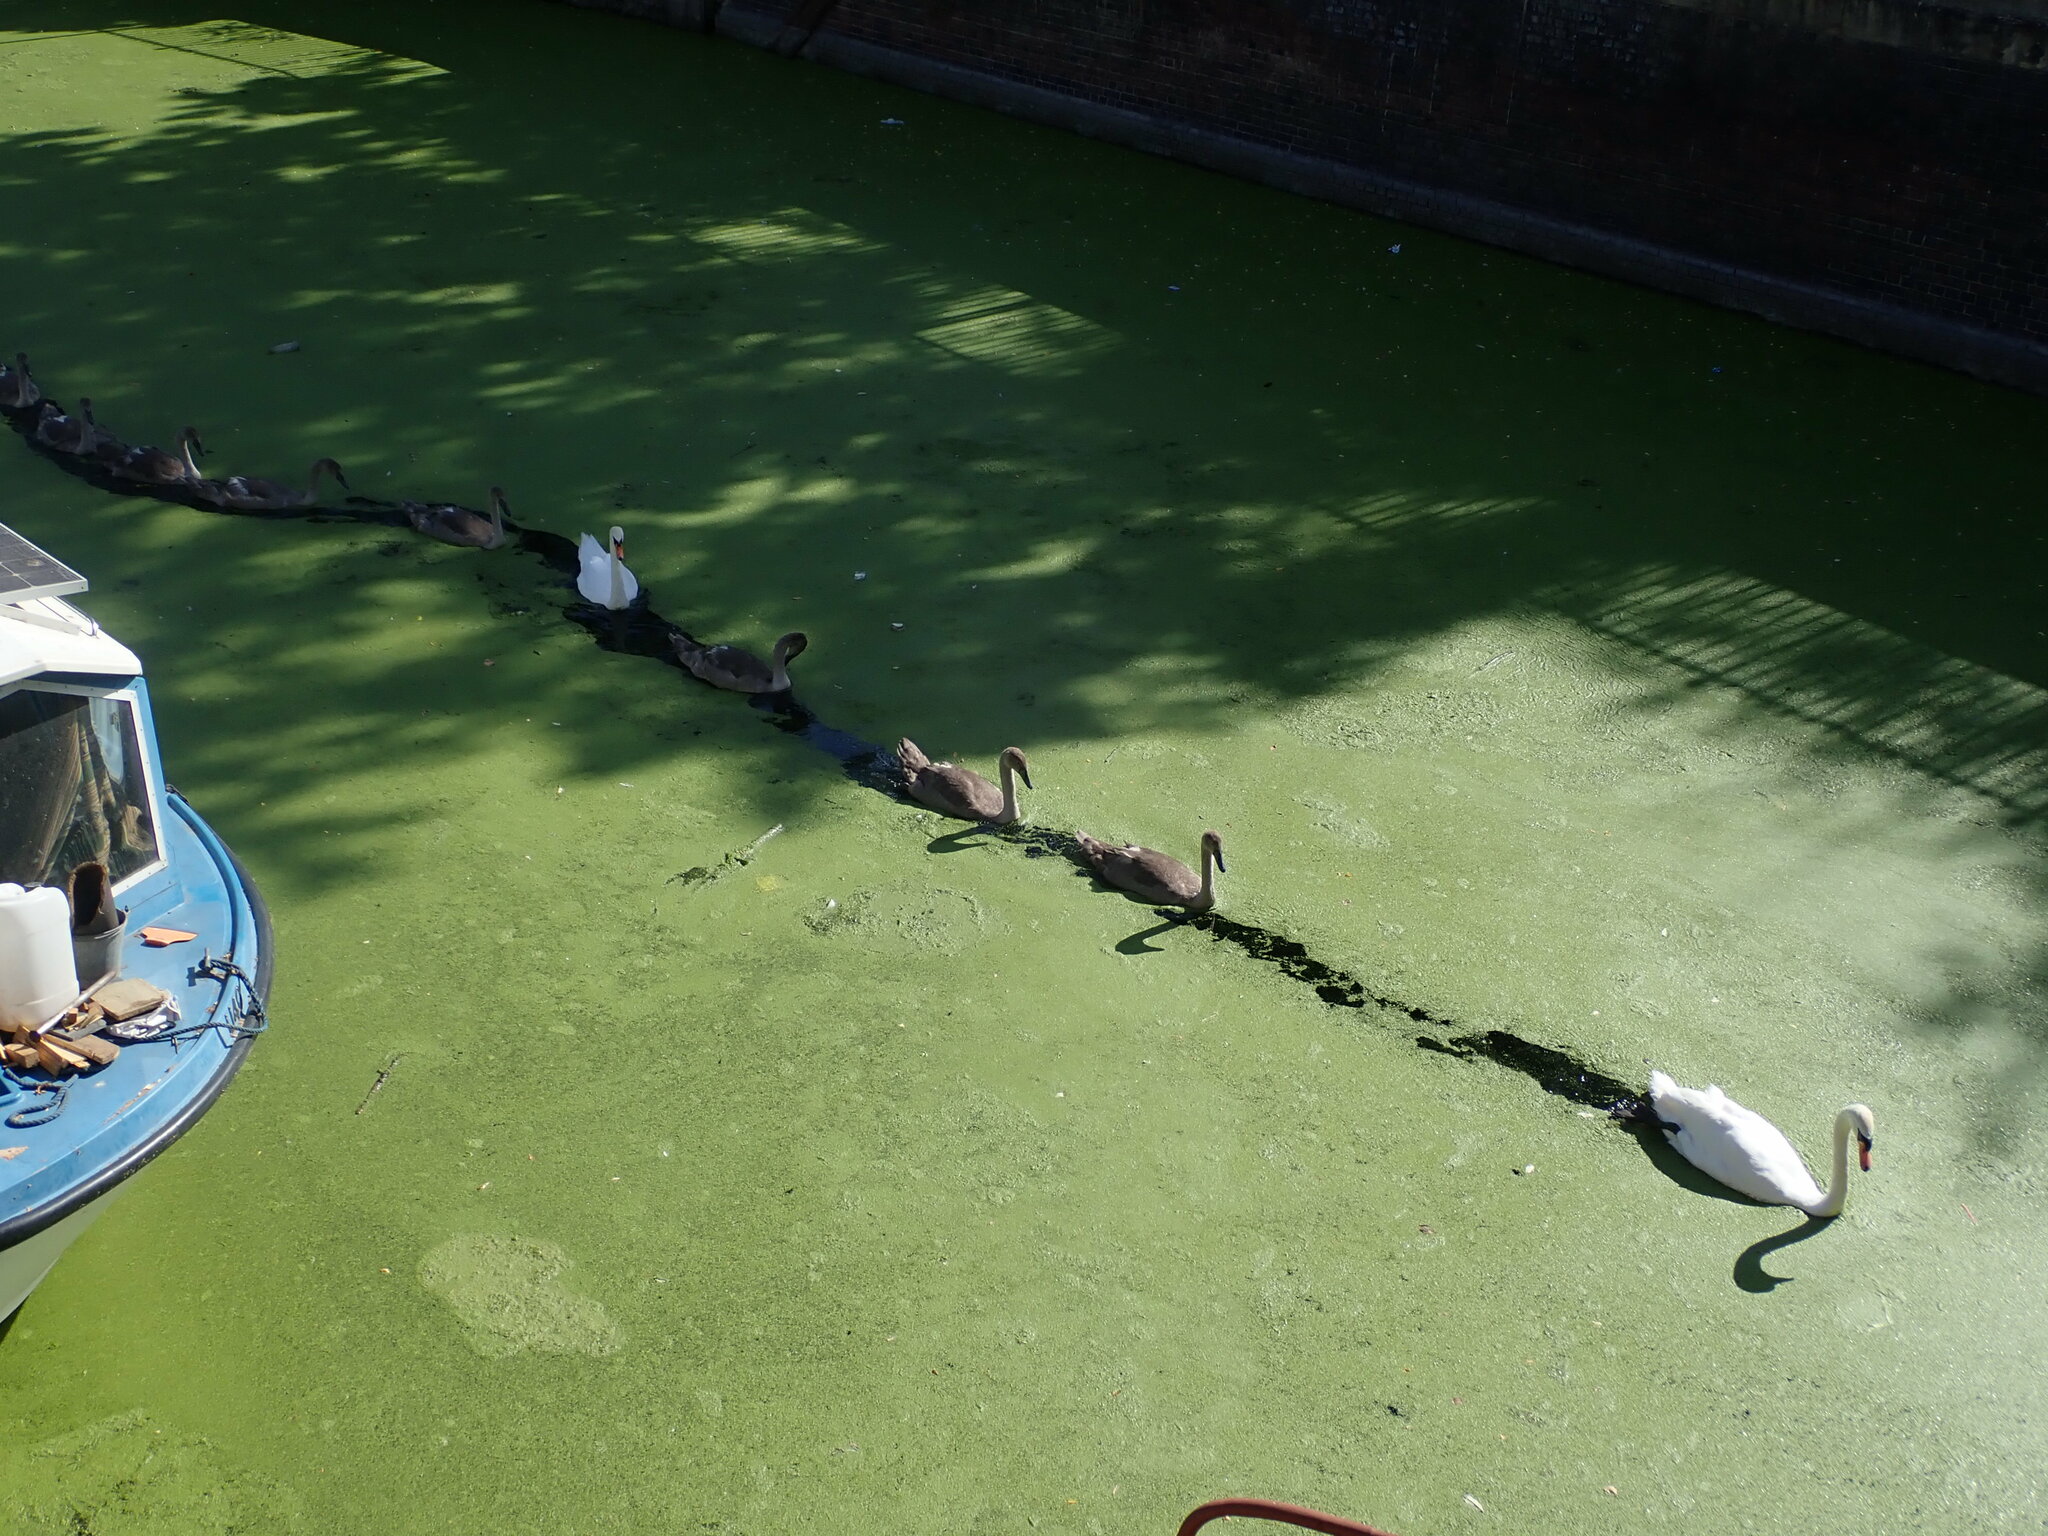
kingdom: Animalia
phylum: Chordata
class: Aves
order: Anseriformes
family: Anatidae
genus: Cygnus
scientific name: Cygnus olor
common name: Mute swan
